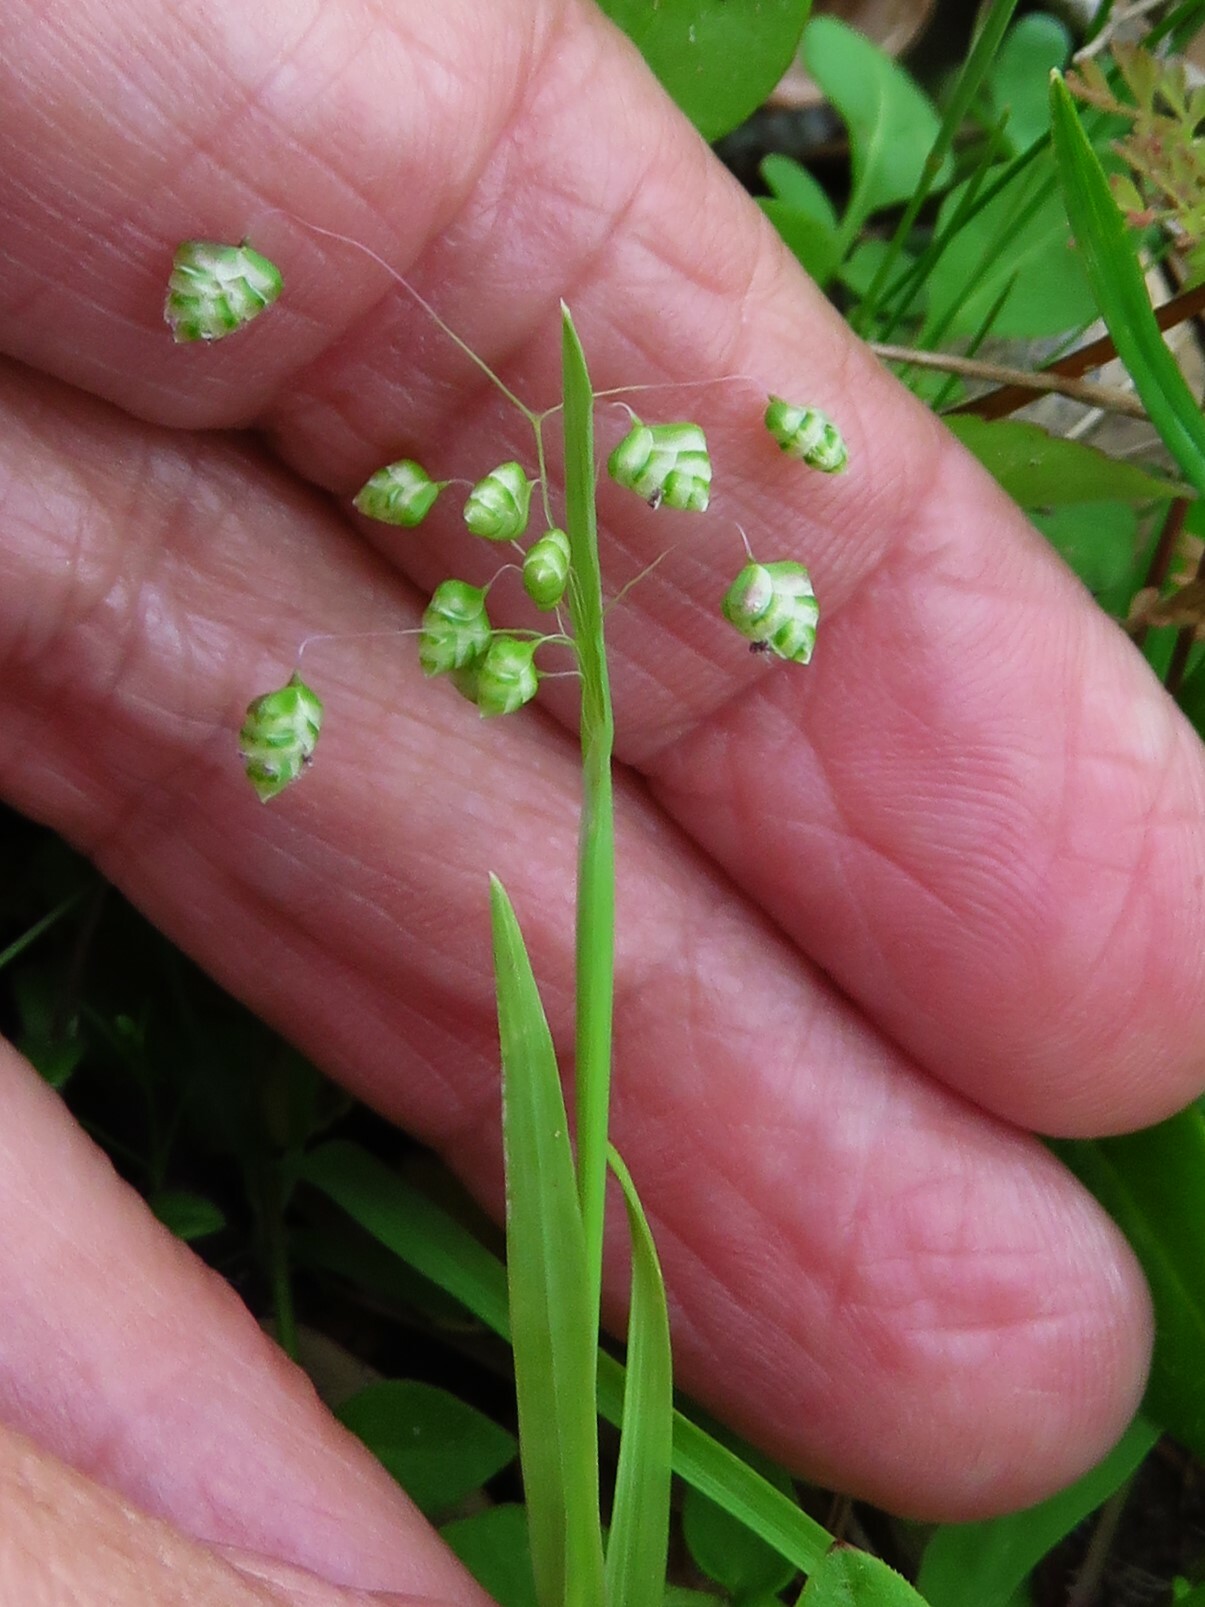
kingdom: Plantae
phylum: Tracheophyta
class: Liliopsida
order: Poales
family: Poaceae
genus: Briza
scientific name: Briza minor
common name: Lesser quaking-grass
